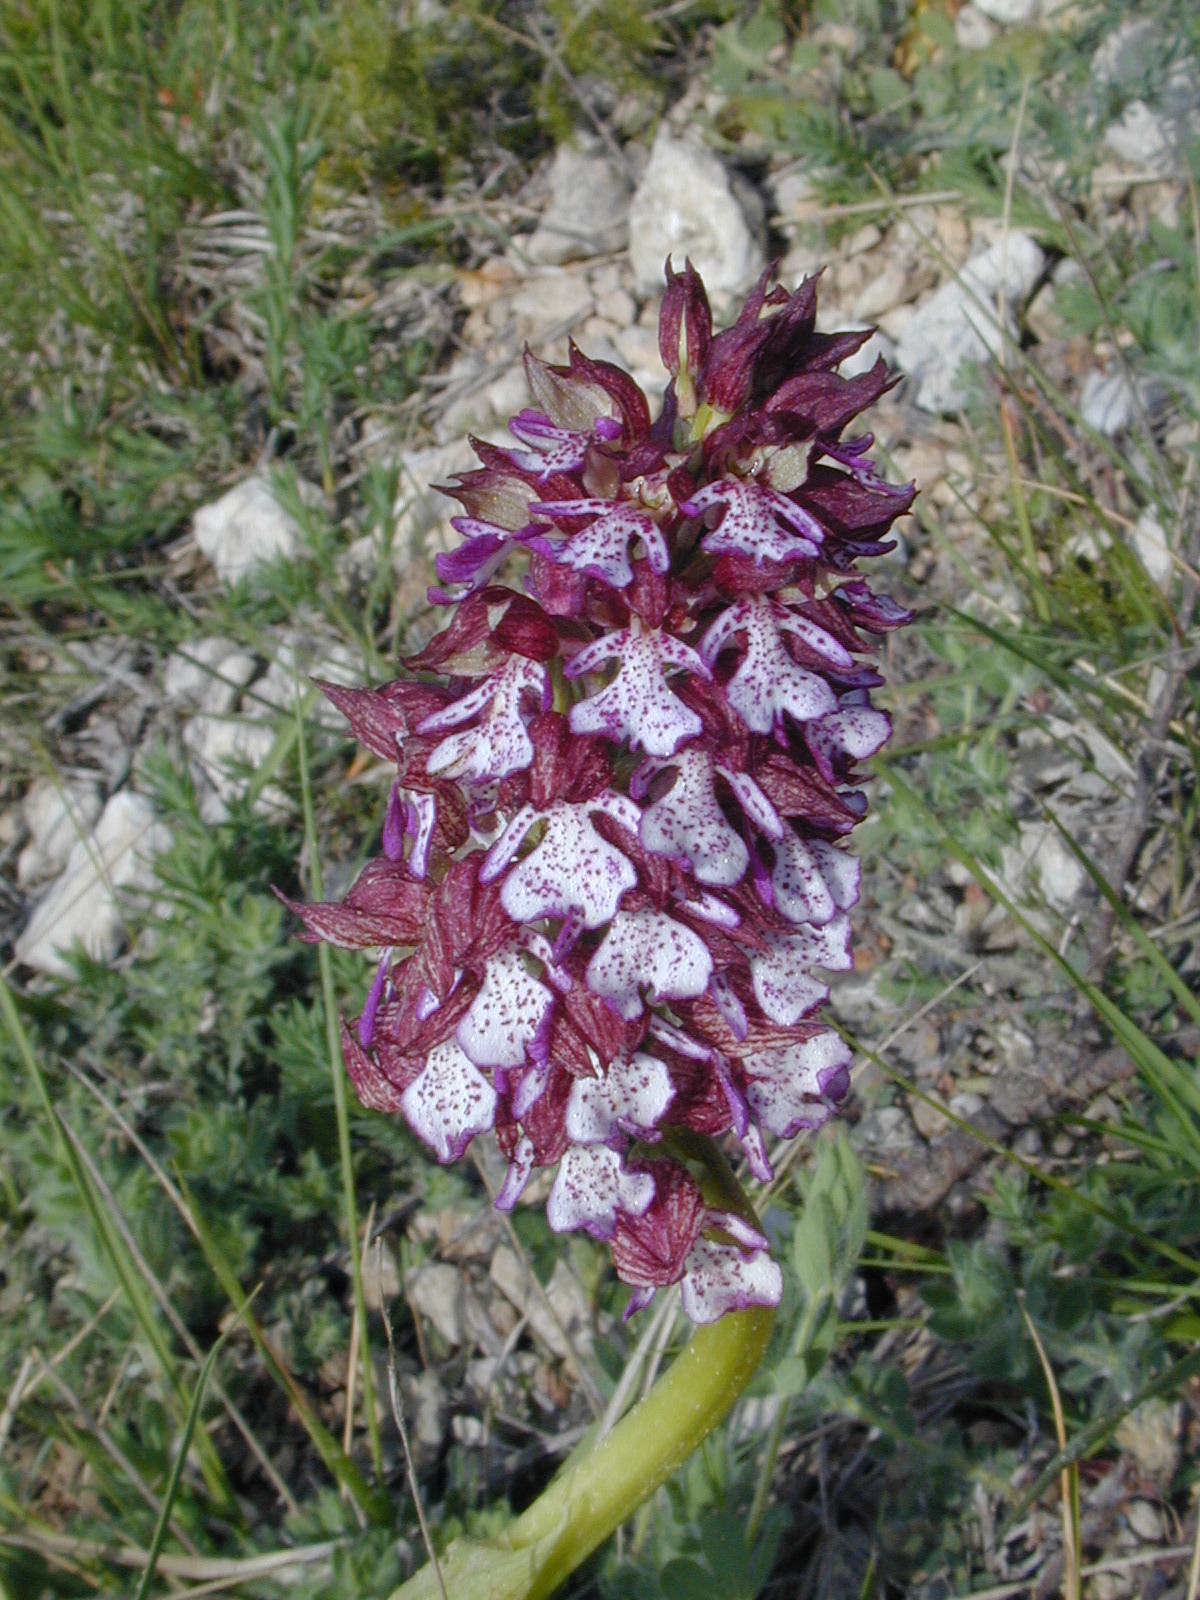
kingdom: Plantae
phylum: Tracheophyta
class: Liliopsida
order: Asparagales
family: Orchidaceae
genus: Orchis
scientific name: Orchis purpurea
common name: Lady orchid
